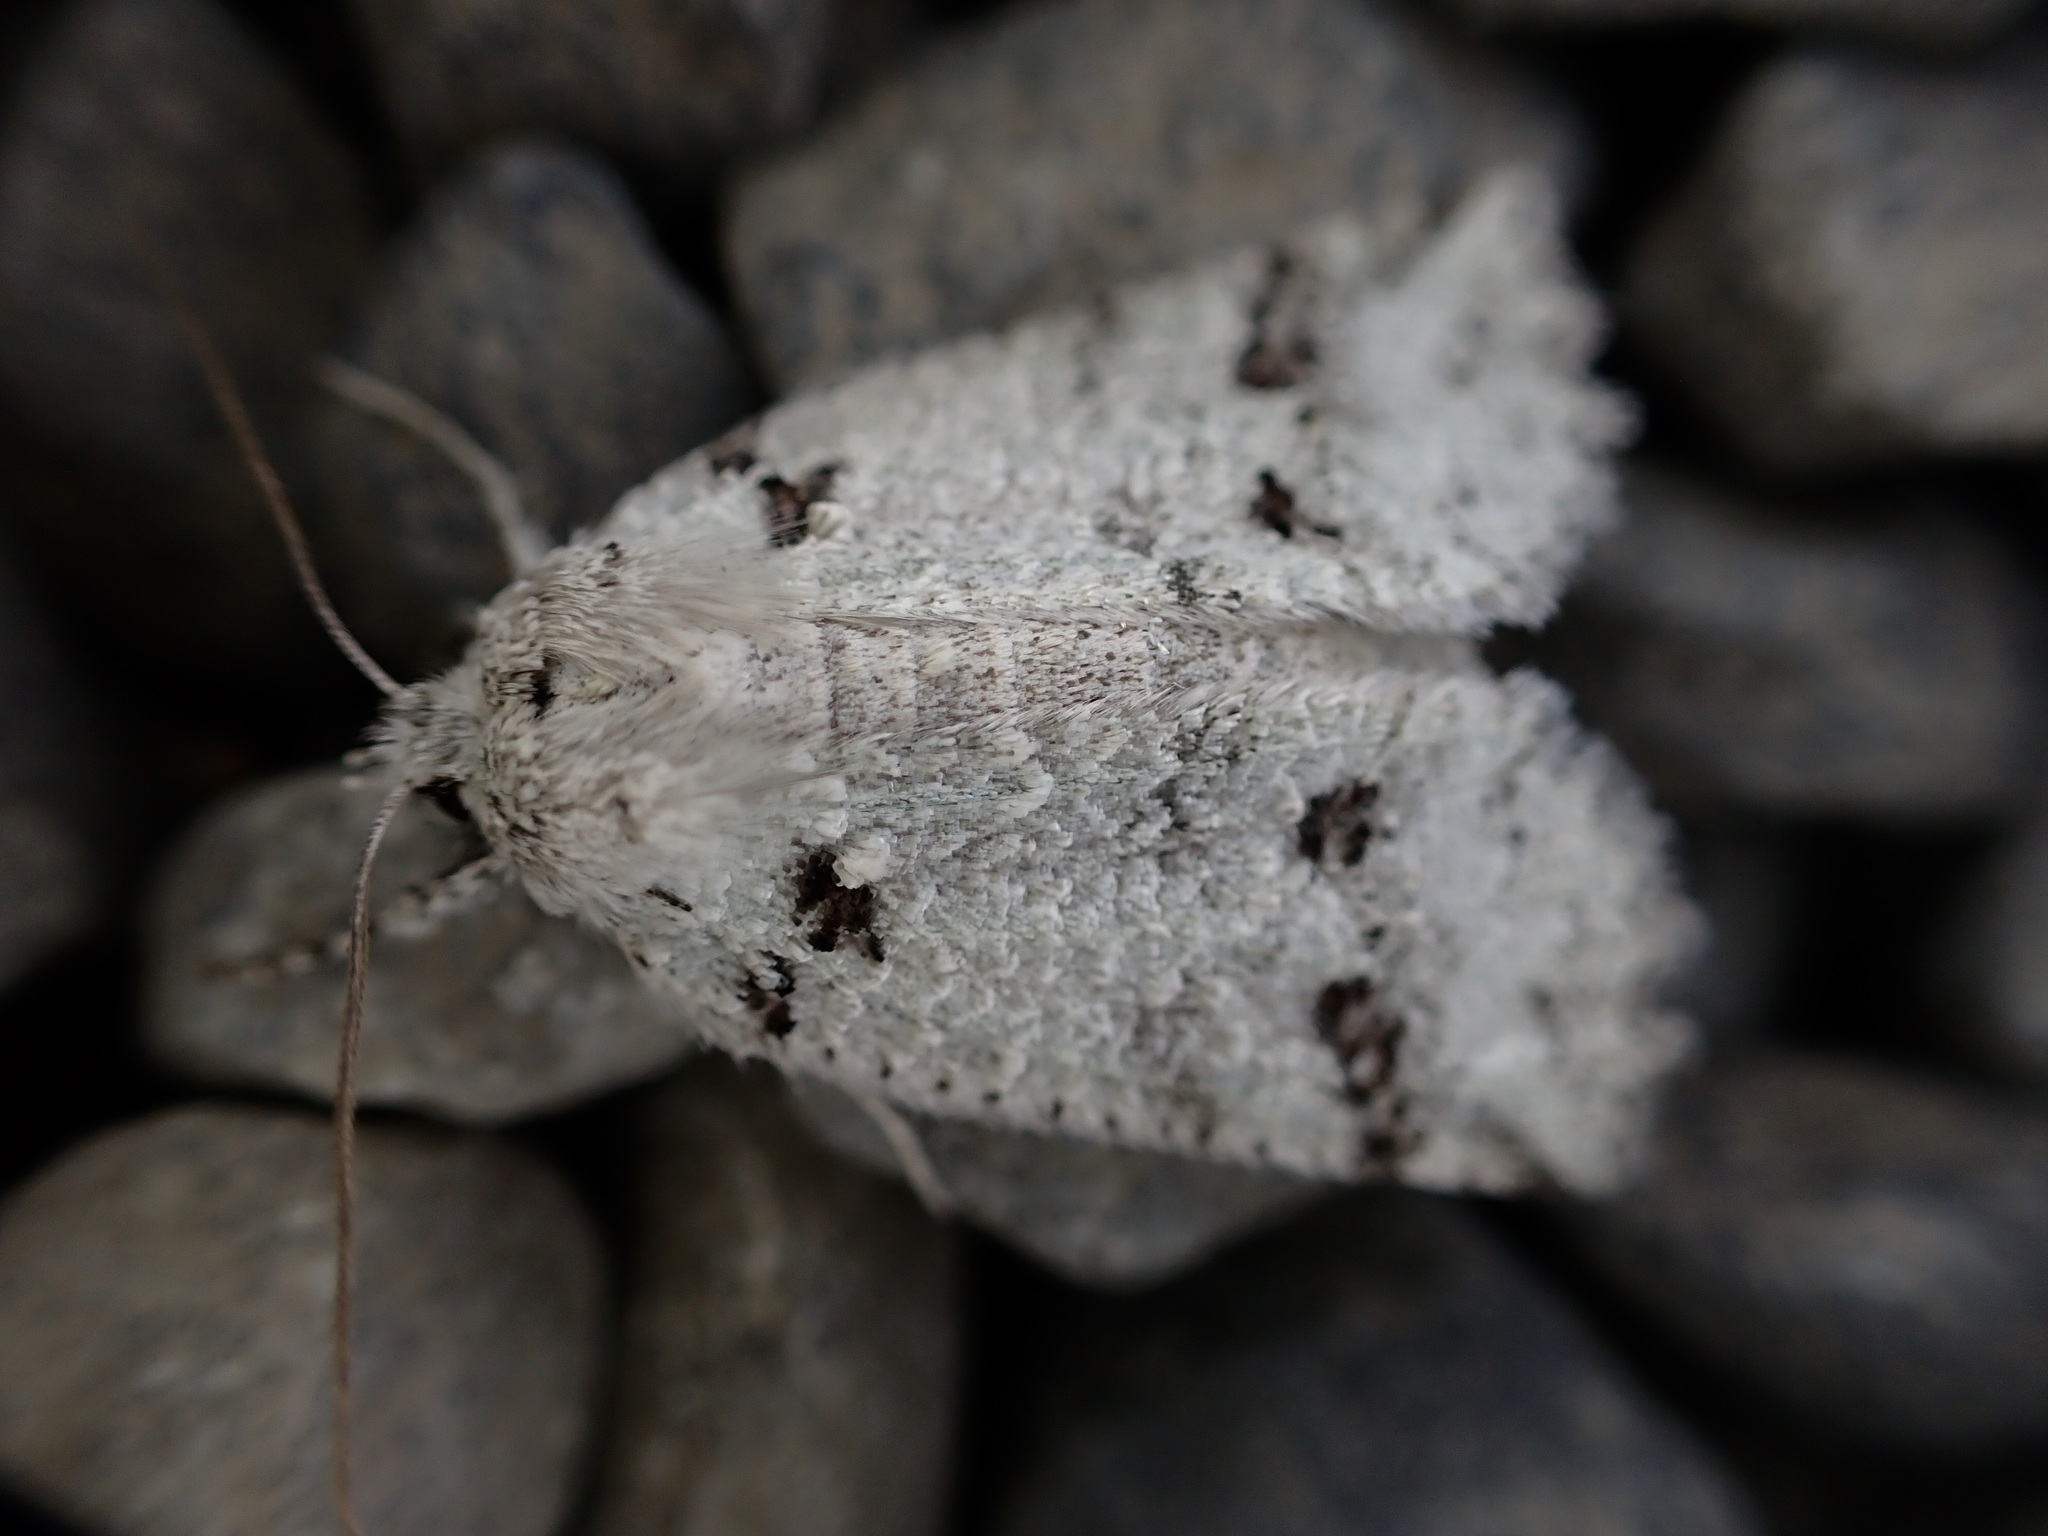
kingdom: Animalia
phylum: Arthropoda
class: Insecta
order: Lepidoptera
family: Geometridae
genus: Declana
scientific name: Declana floccosa
